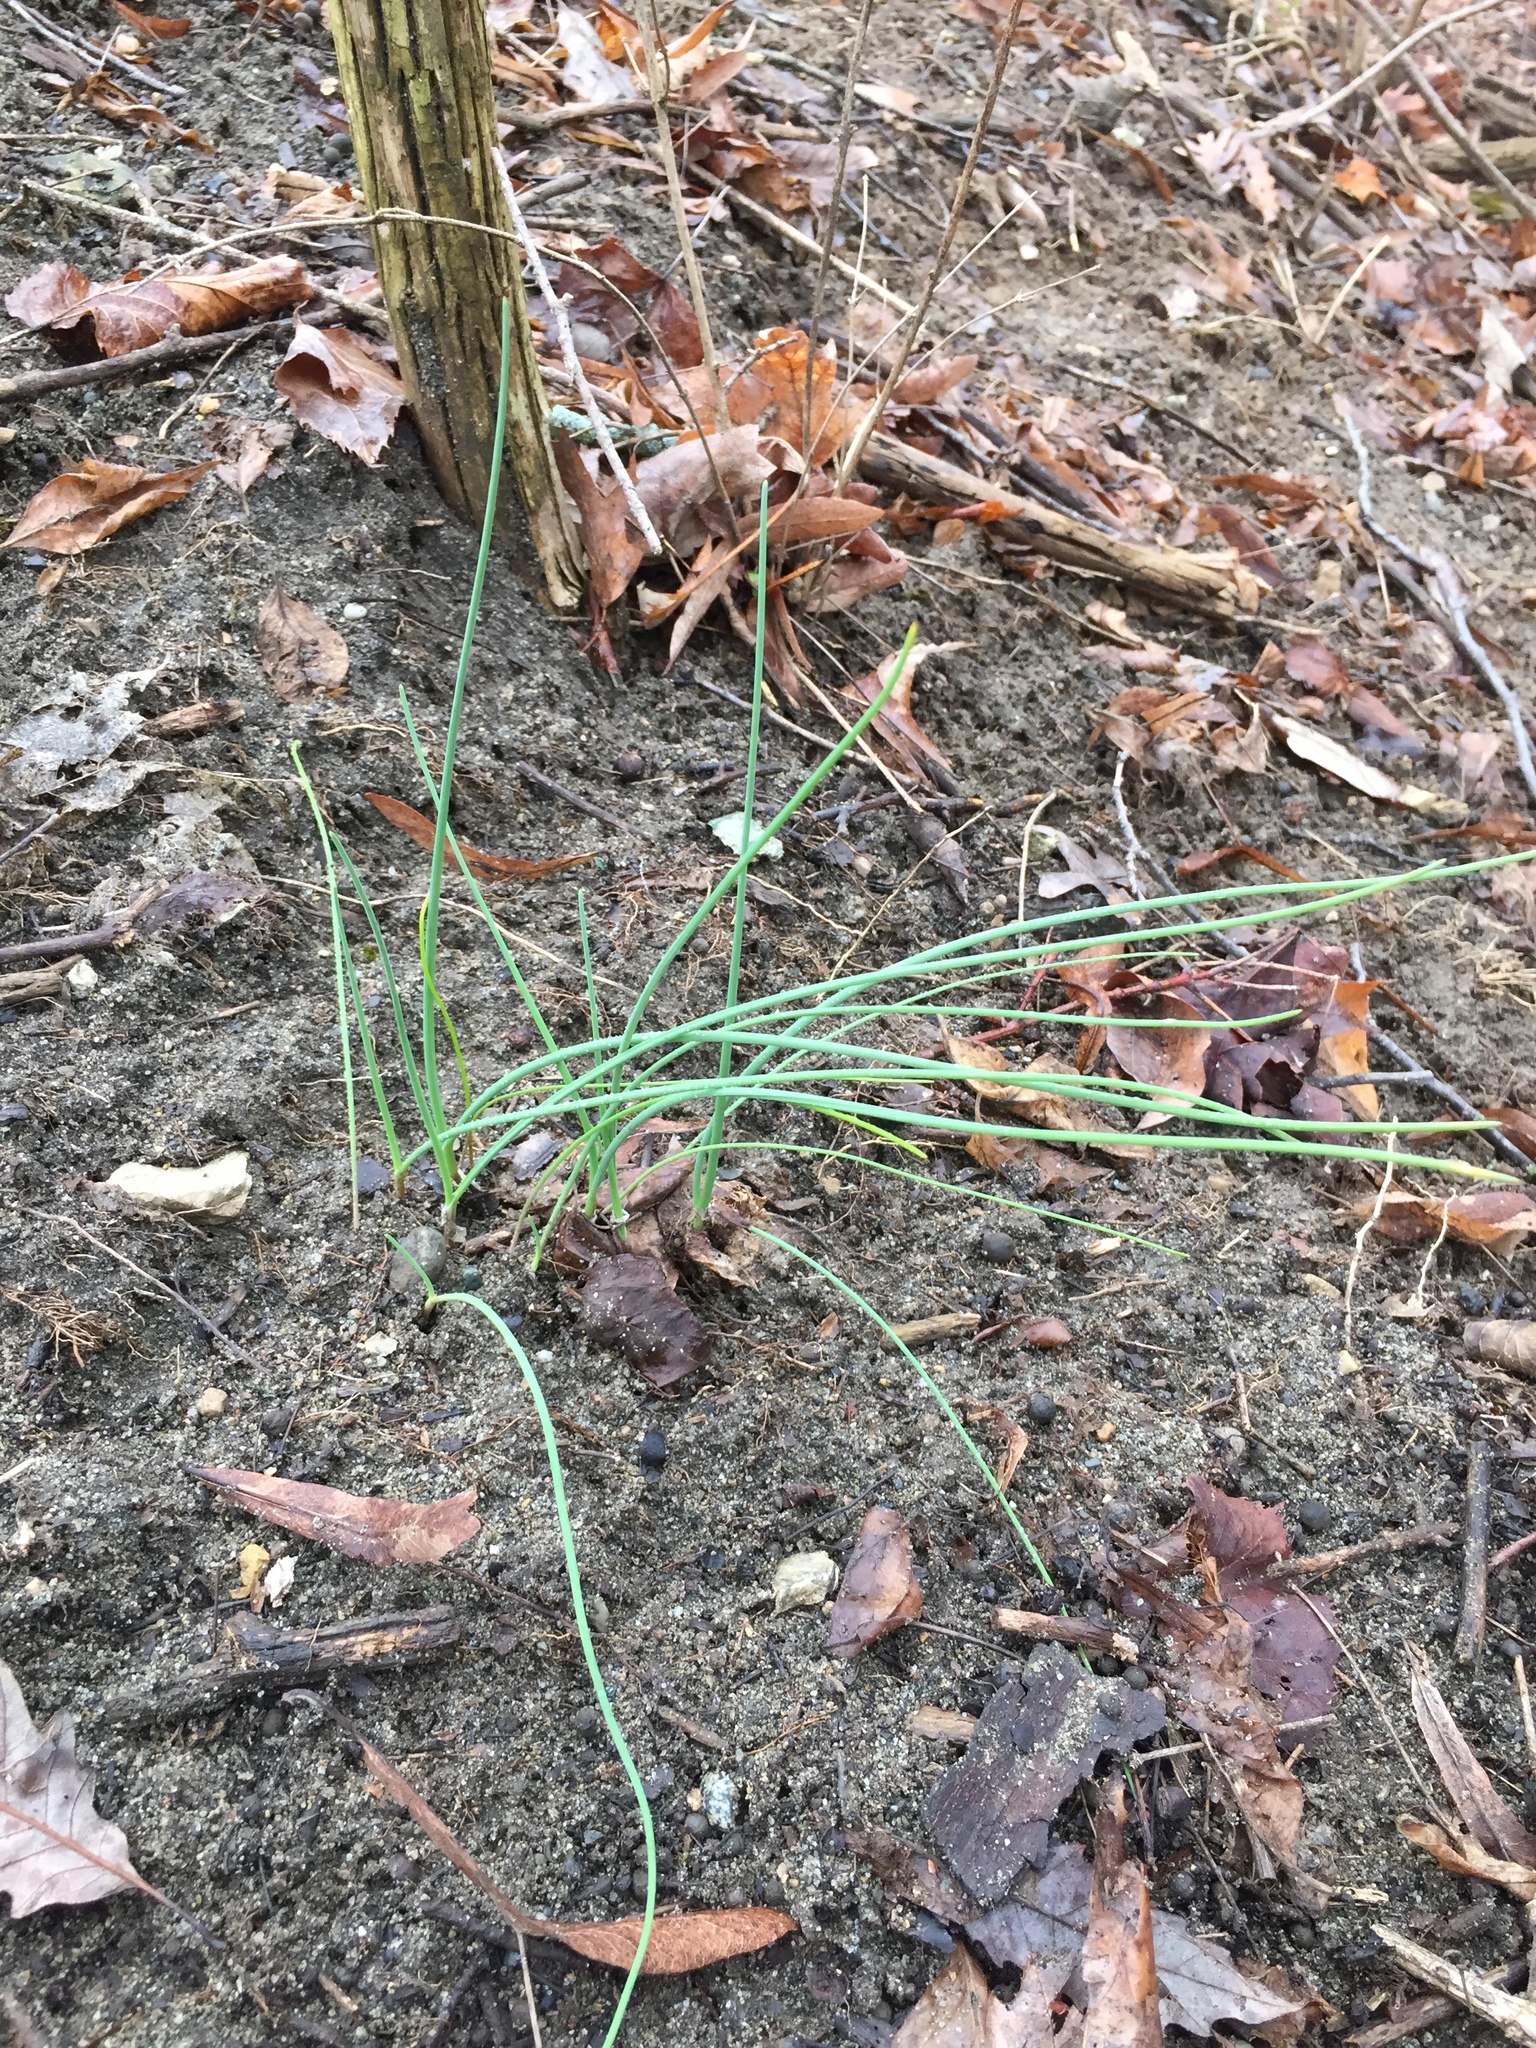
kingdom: Plantae
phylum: Tracheophyta
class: Liliopsida
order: Asparagales
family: Amaryllidaceae
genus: Allium
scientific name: Allium vineale
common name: Crow garlic
